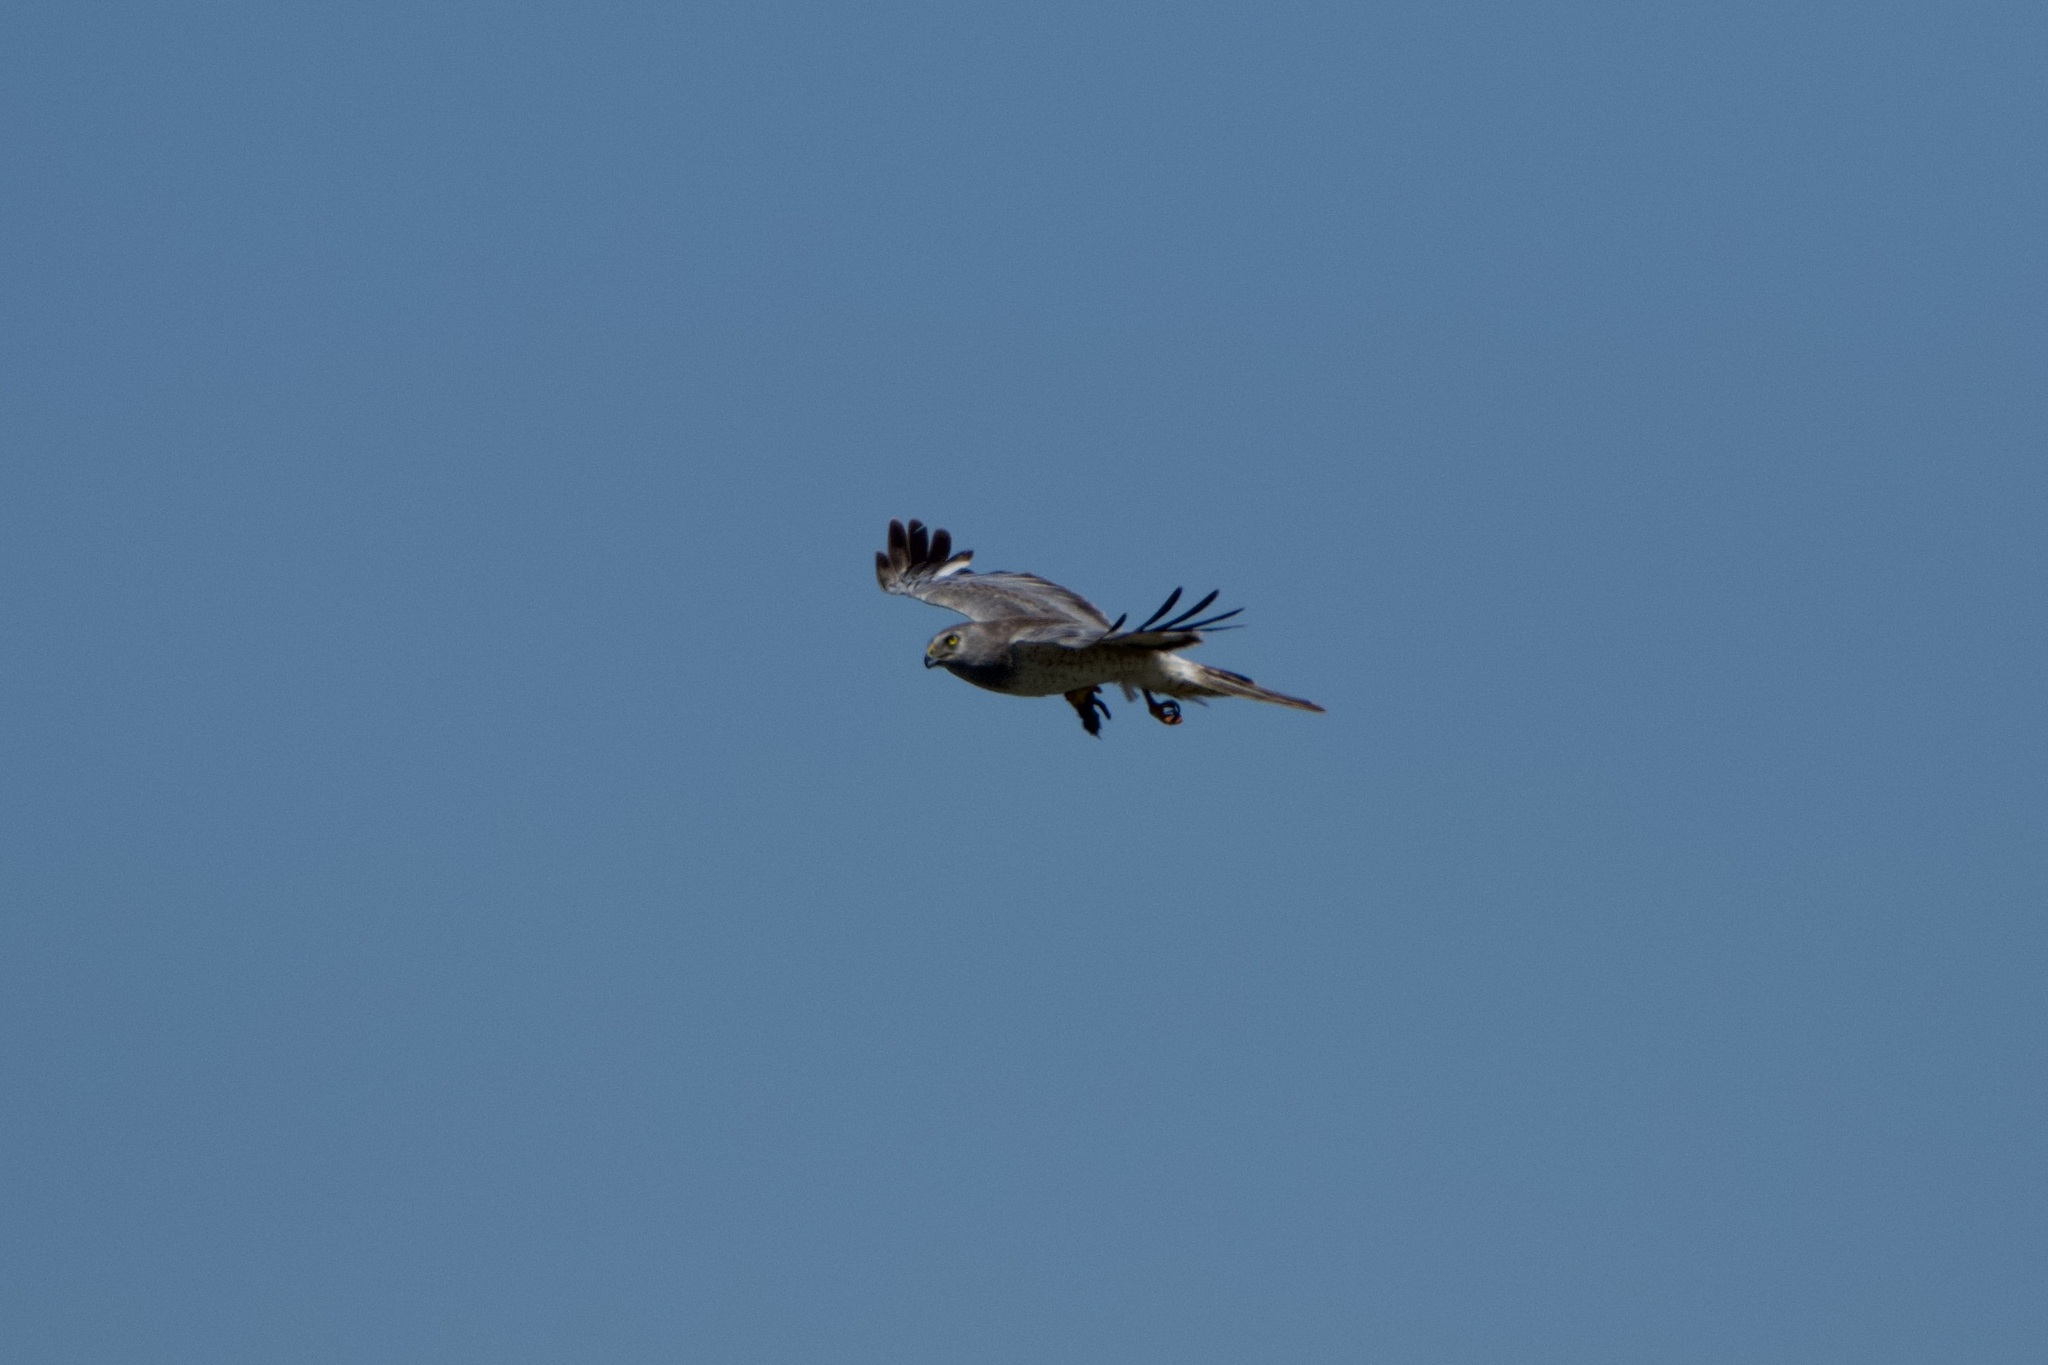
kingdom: Animalia
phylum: Chordata
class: Aves
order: Accipitriformes
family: Accipitridae
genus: Circus
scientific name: Circus cyaneus
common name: Hen harrier
